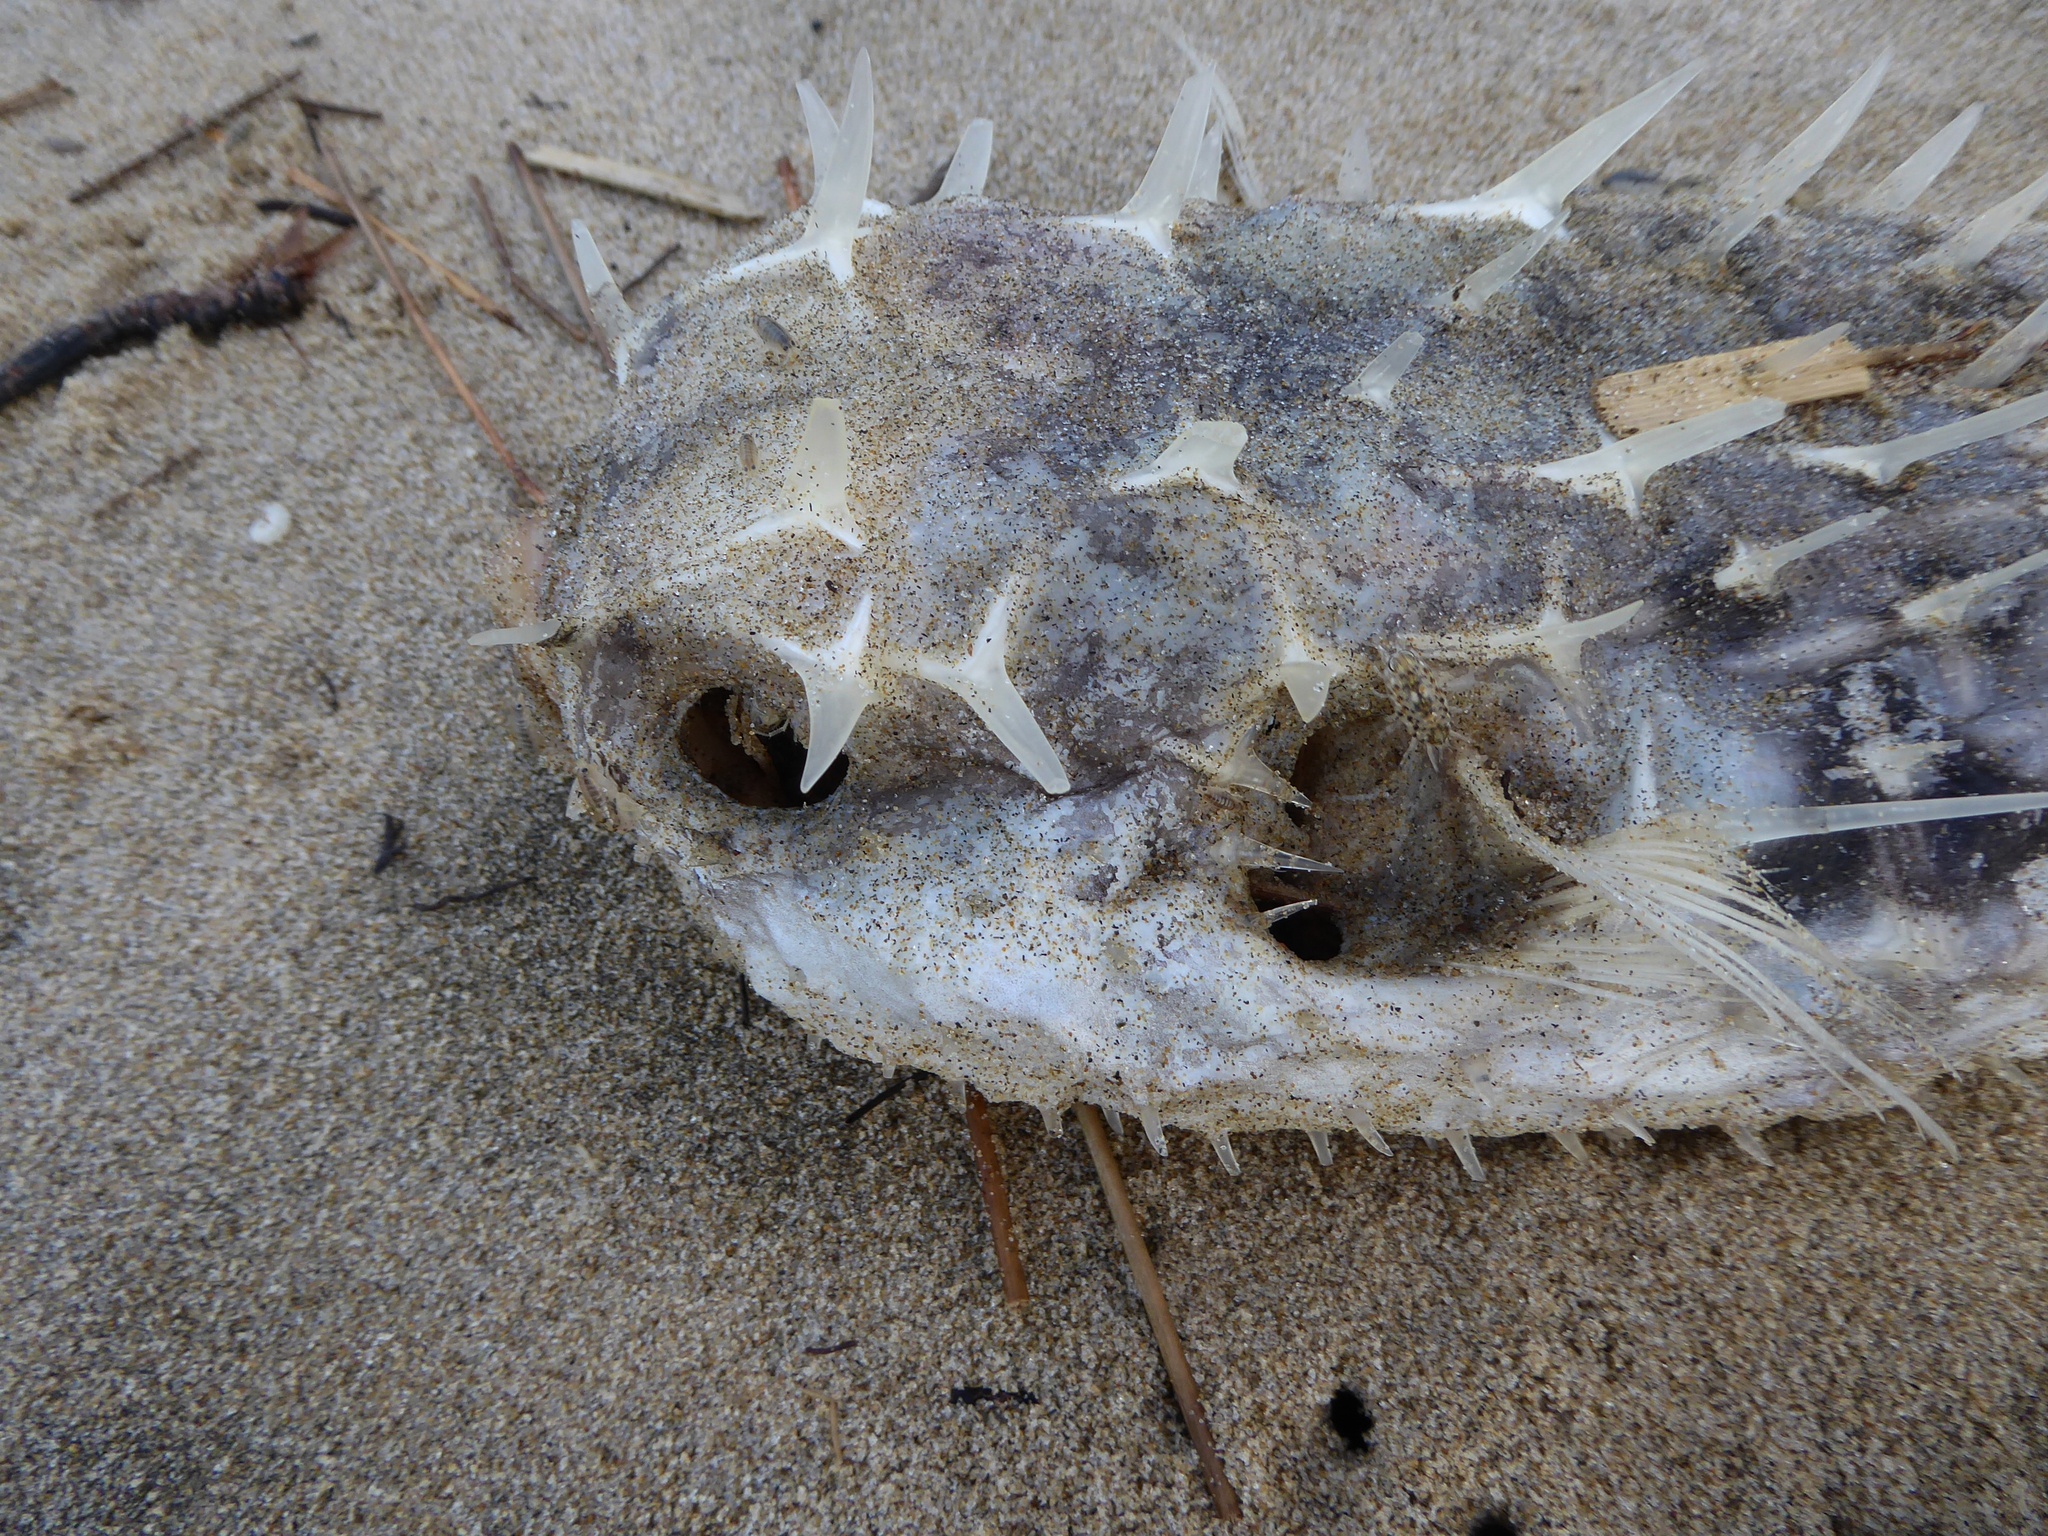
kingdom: Animalia
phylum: Chordata
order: Tetraodontiformes
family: Diodontidae
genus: Allomycterus
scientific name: Allomycterus pilatus
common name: No common name
